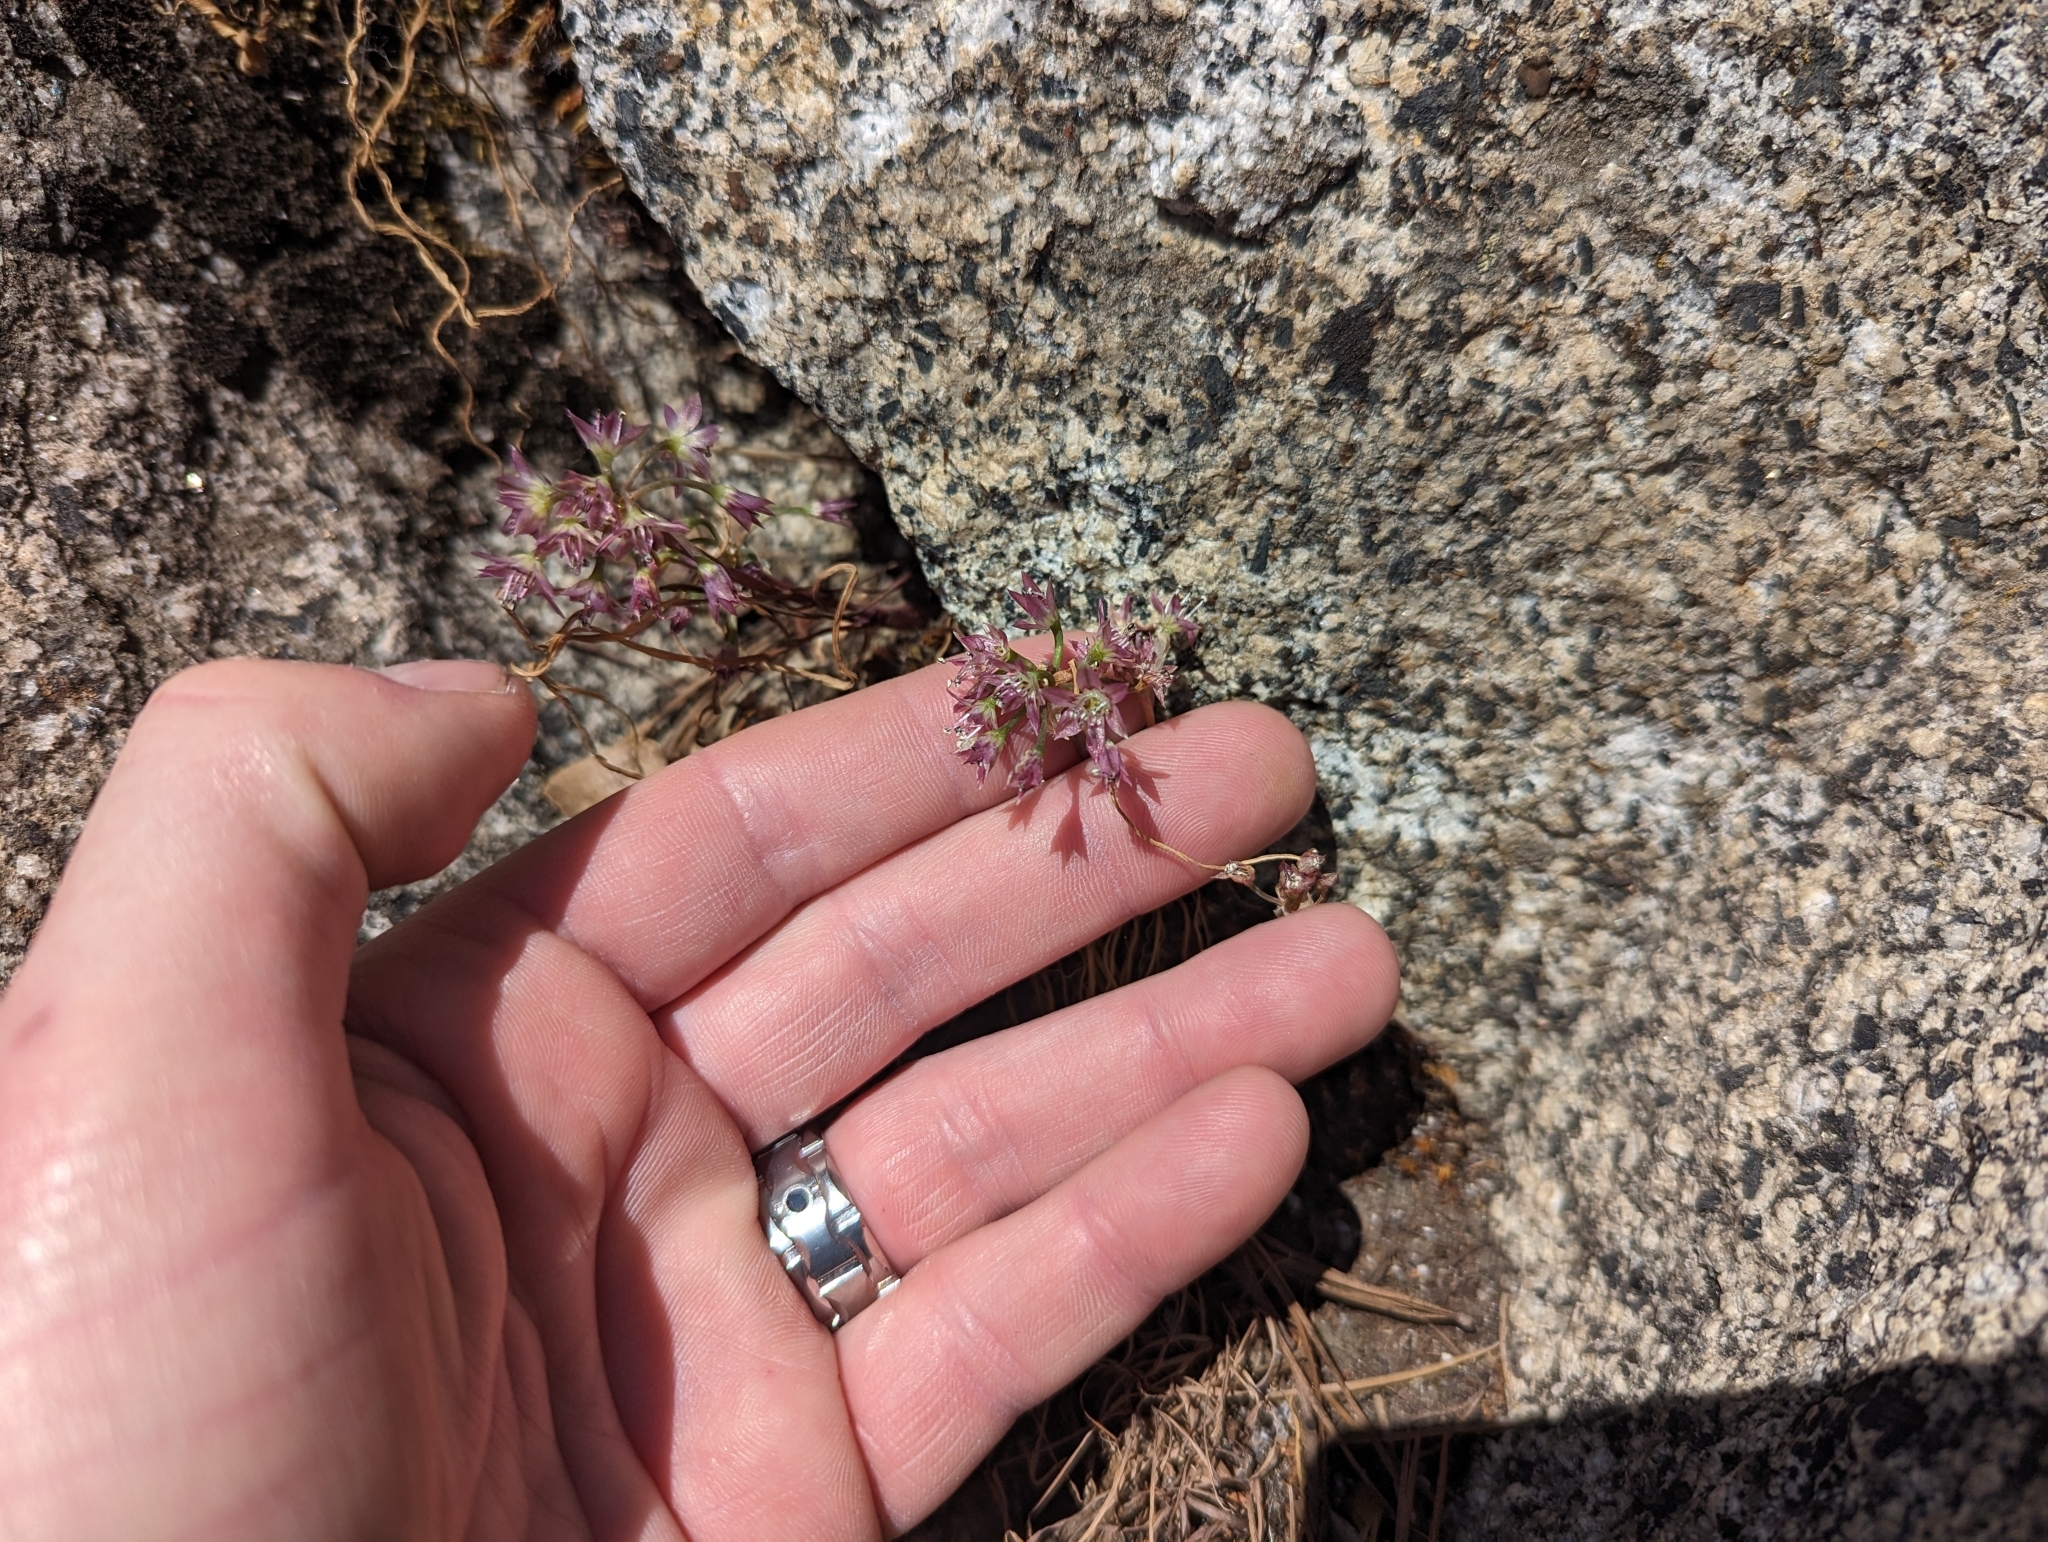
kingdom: Plantae
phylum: Tracheophyta
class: Liliopsida
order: Asparagales
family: Amaryllidaceae
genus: Allium
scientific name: Allium campanulatum
